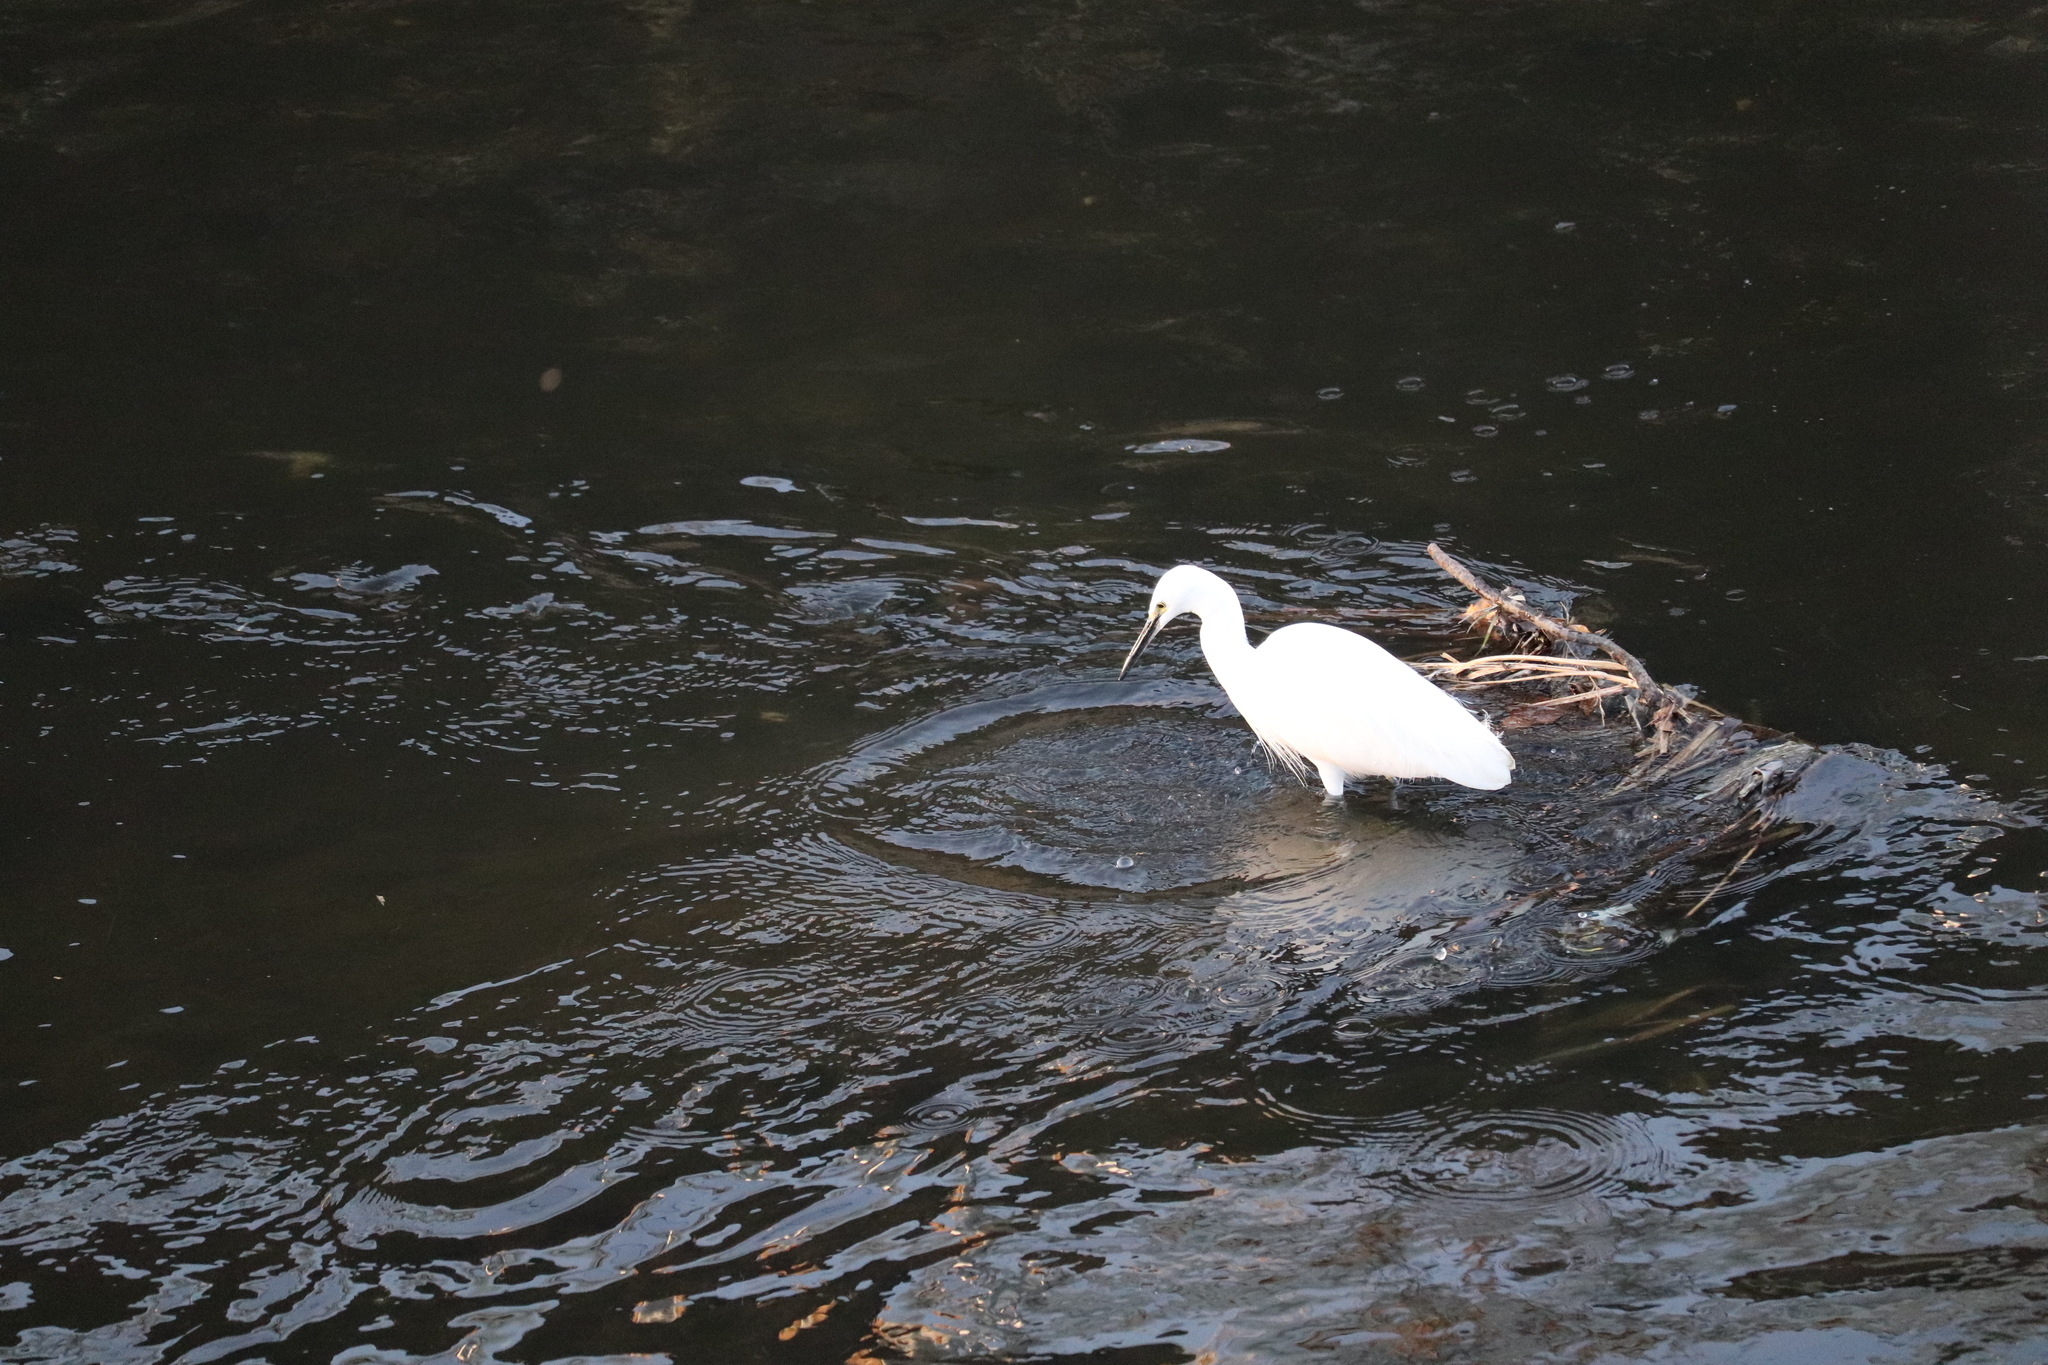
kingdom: Animalia
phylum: Chordata
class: Aves
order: Pelecaniformes
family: Ardeidae
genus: Egretta
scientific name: Egretta garzetta
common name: Little egret
